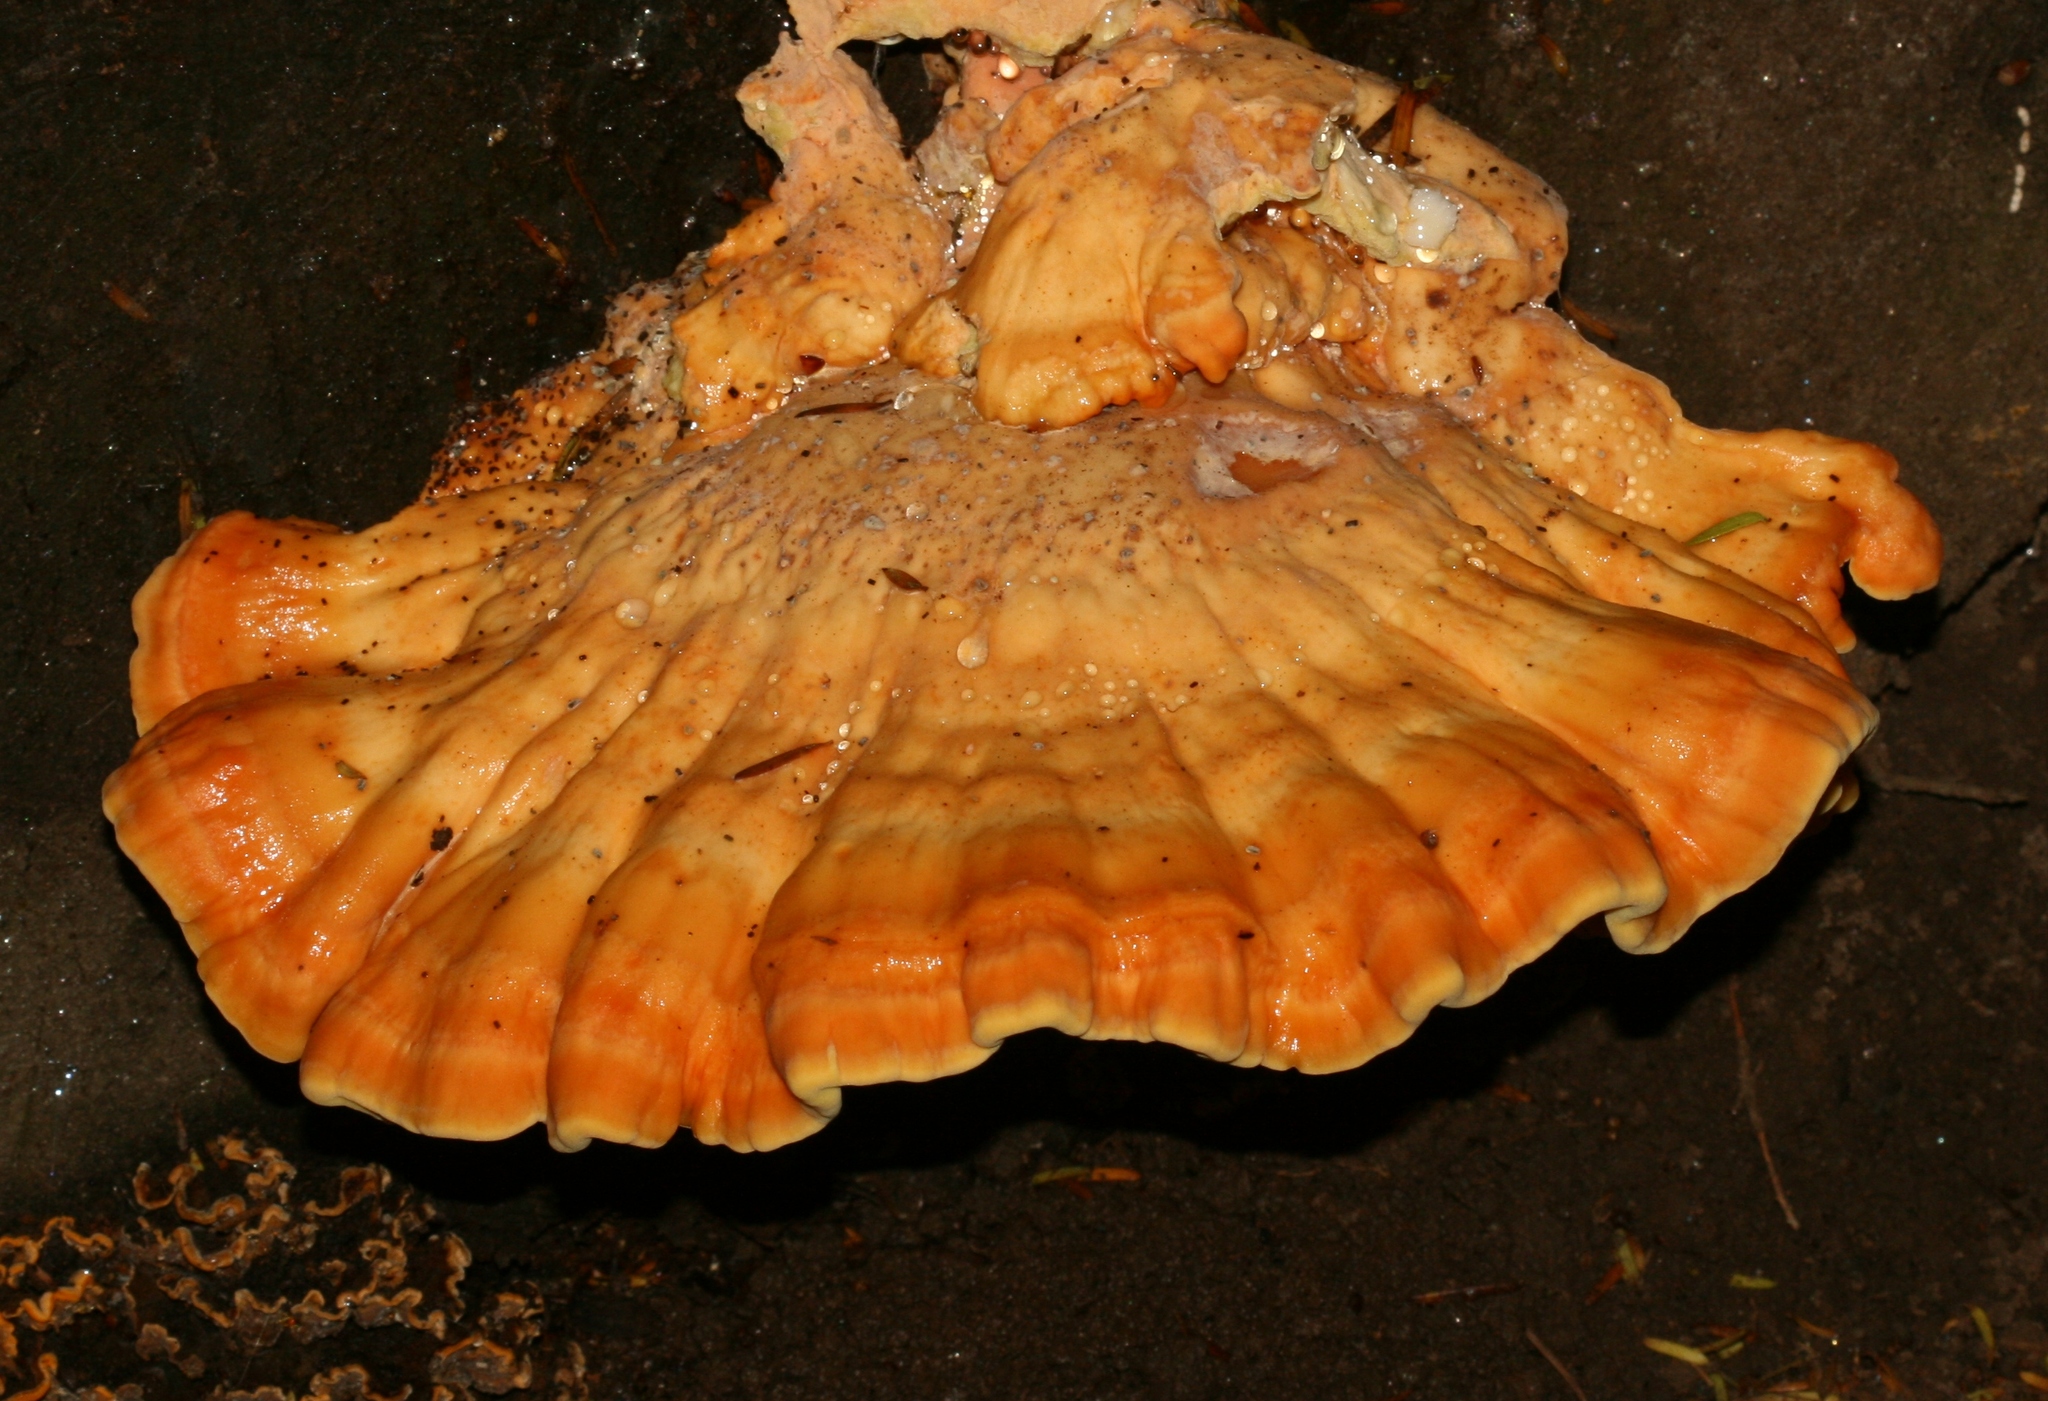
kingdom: Fungi
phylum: Basidiomycota
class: Agaricomycetes
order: Polyporales
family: Laetiporaceae
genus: Laetiporus
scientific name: Laetiporus sulphureus
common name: Chicken of the woods
